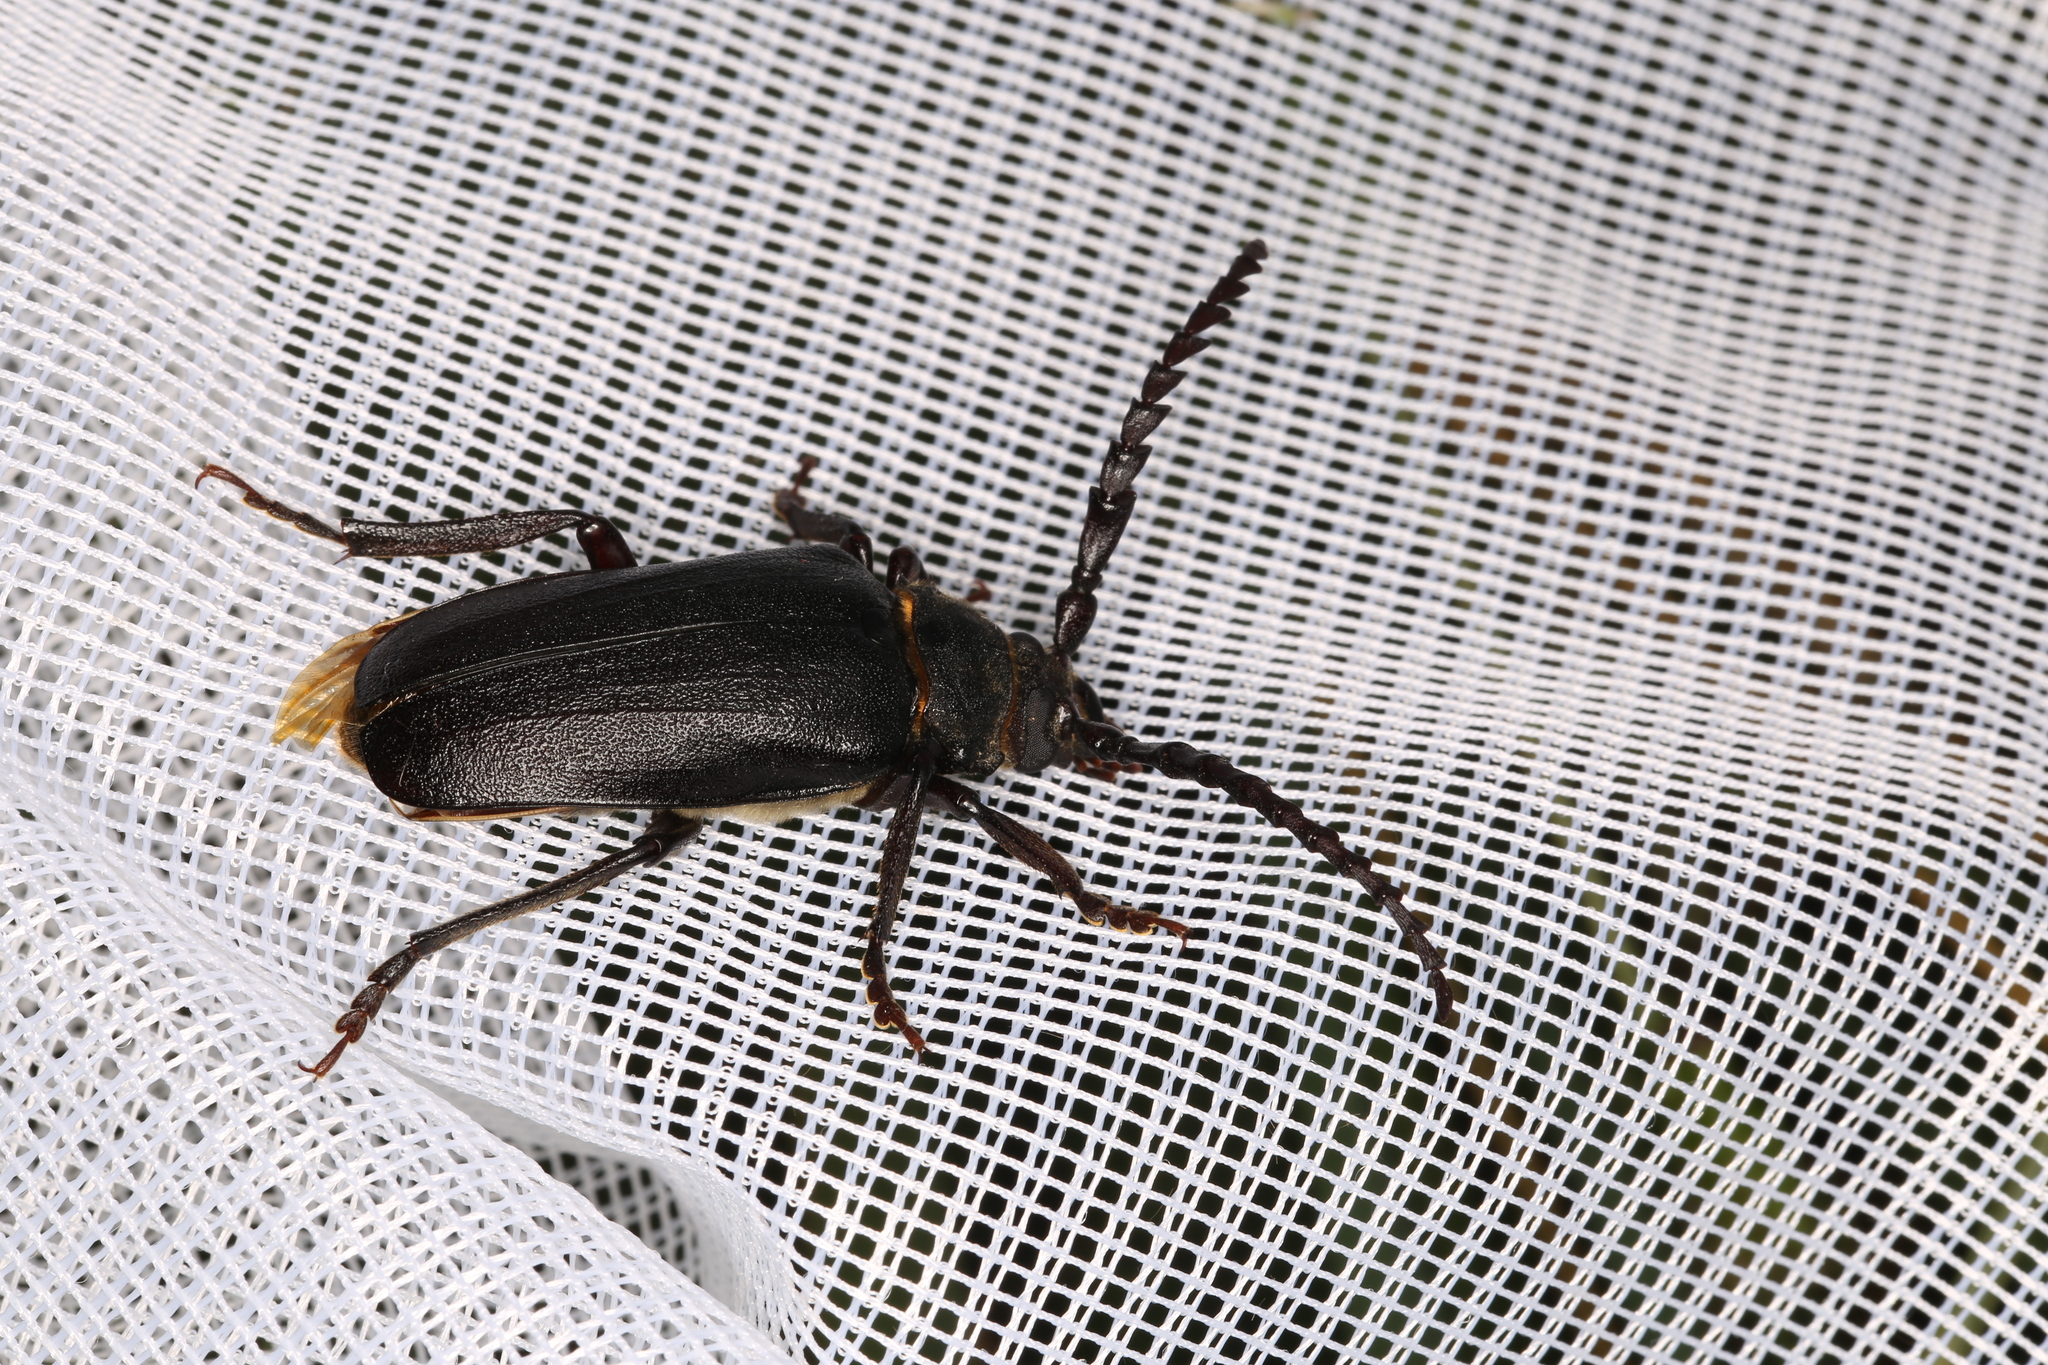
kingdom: Animalia
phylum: Arthropoda
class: Insecta
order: Coleoptera
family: Cerambycidae
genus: Prionus
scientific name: Prionus coriarius
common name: Tanner beetle
